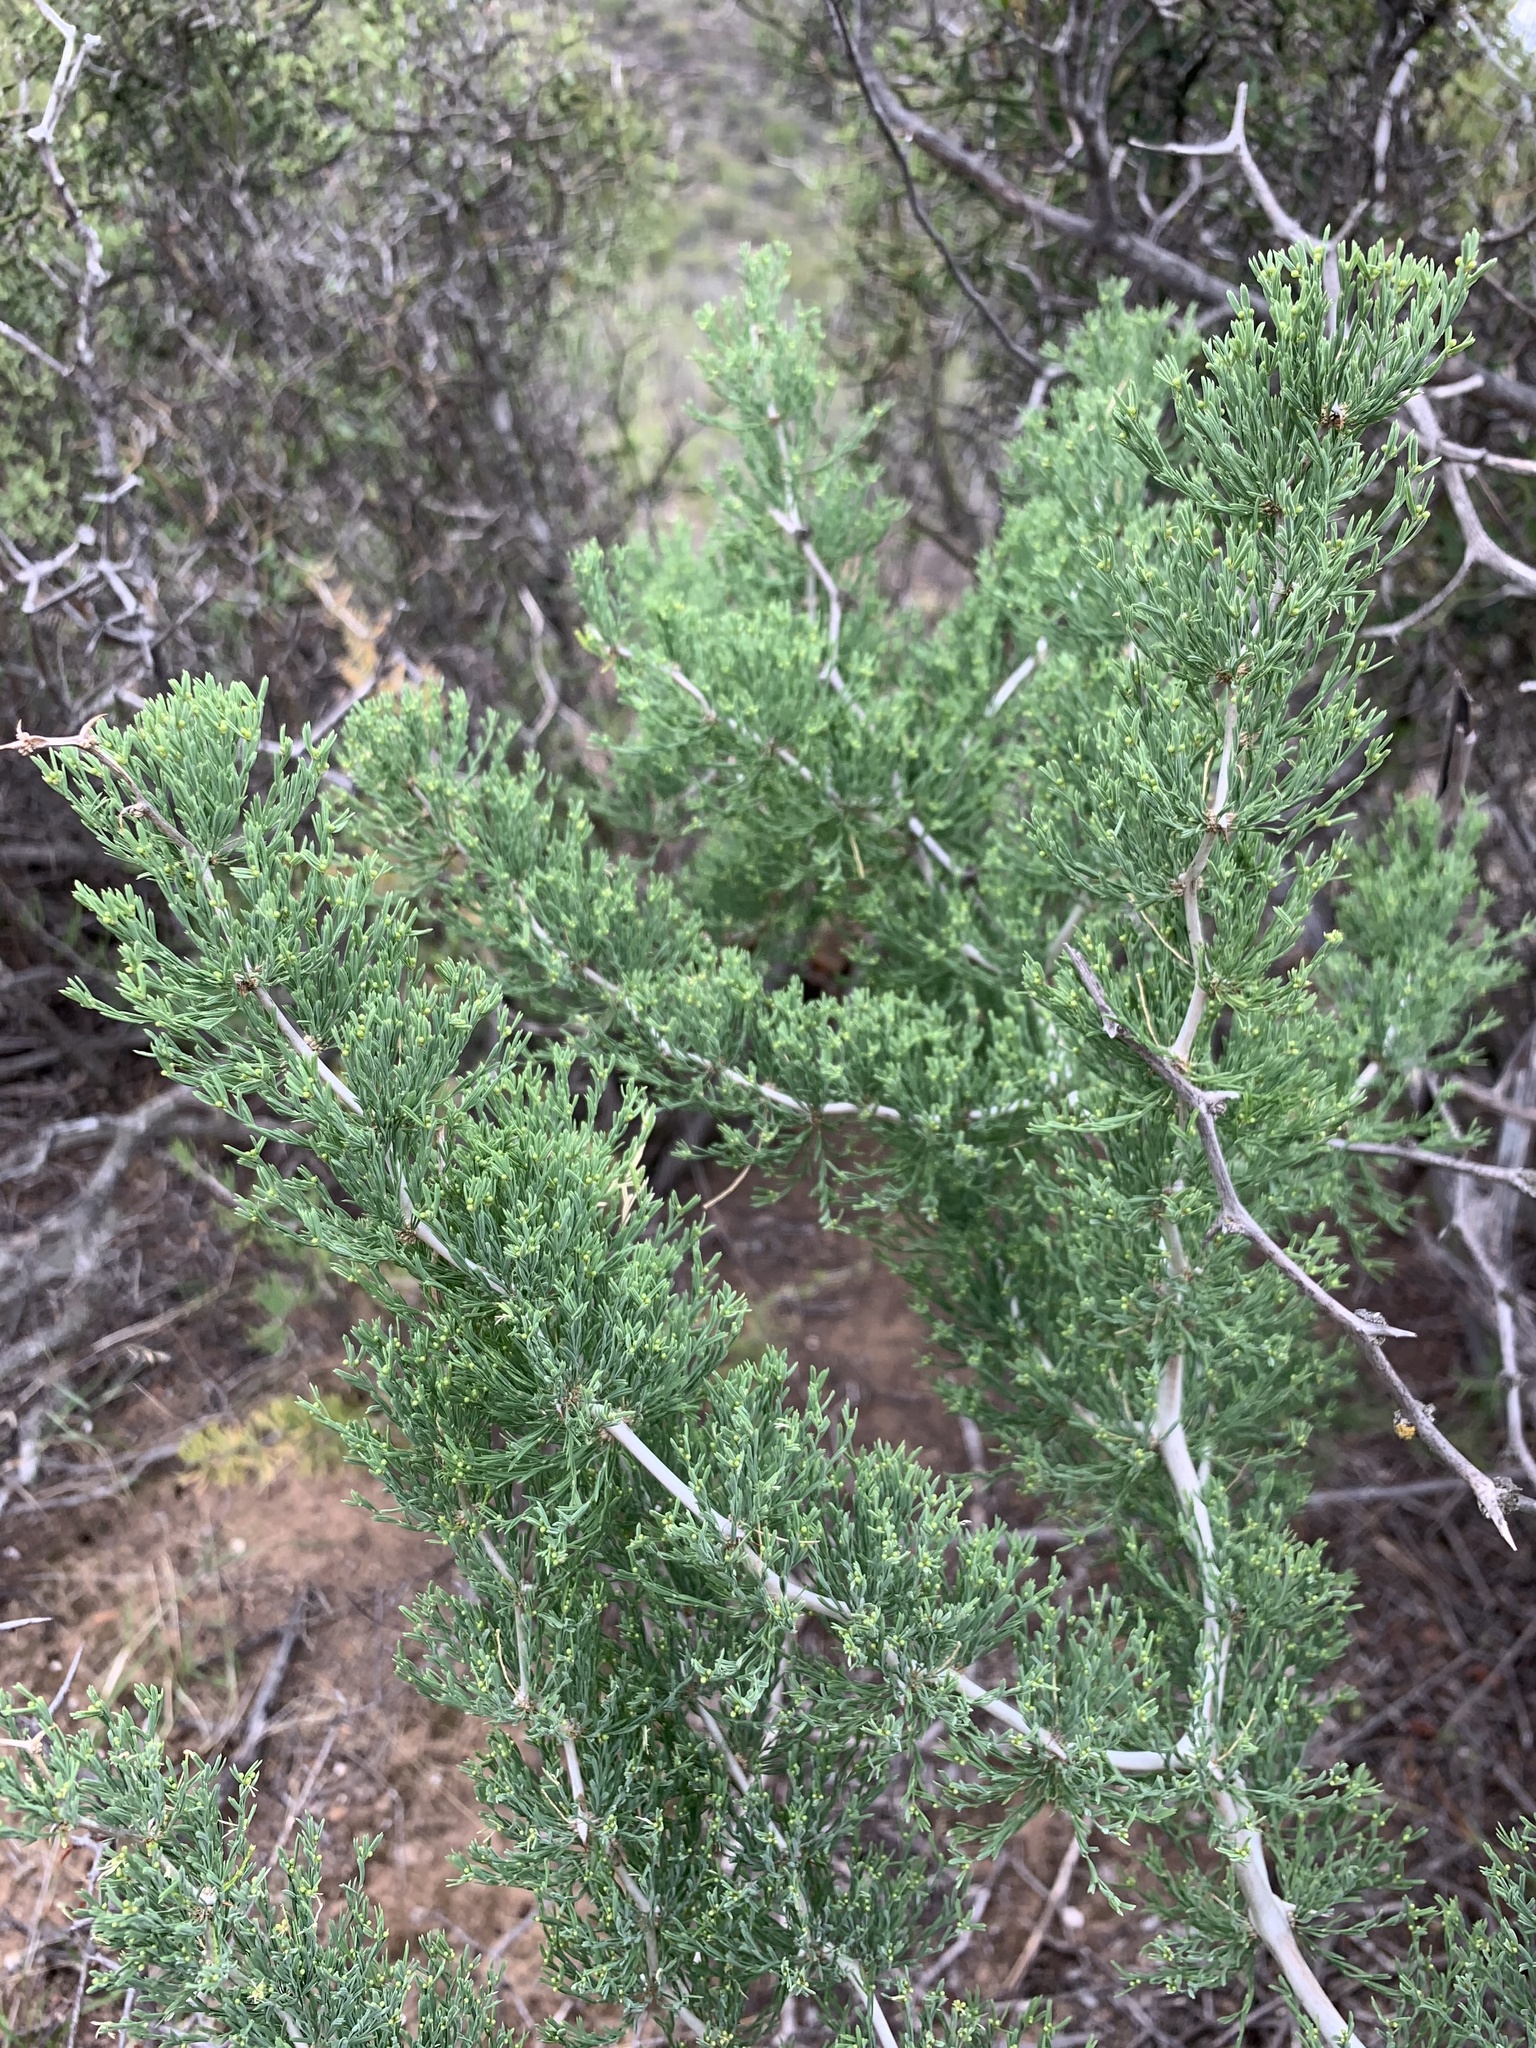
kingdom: Plantae
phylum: Tracheophyta
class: Liliopsida
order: Asparagales
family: Asparagaceae
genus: Asparagus
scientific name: Asparagus burchellii
